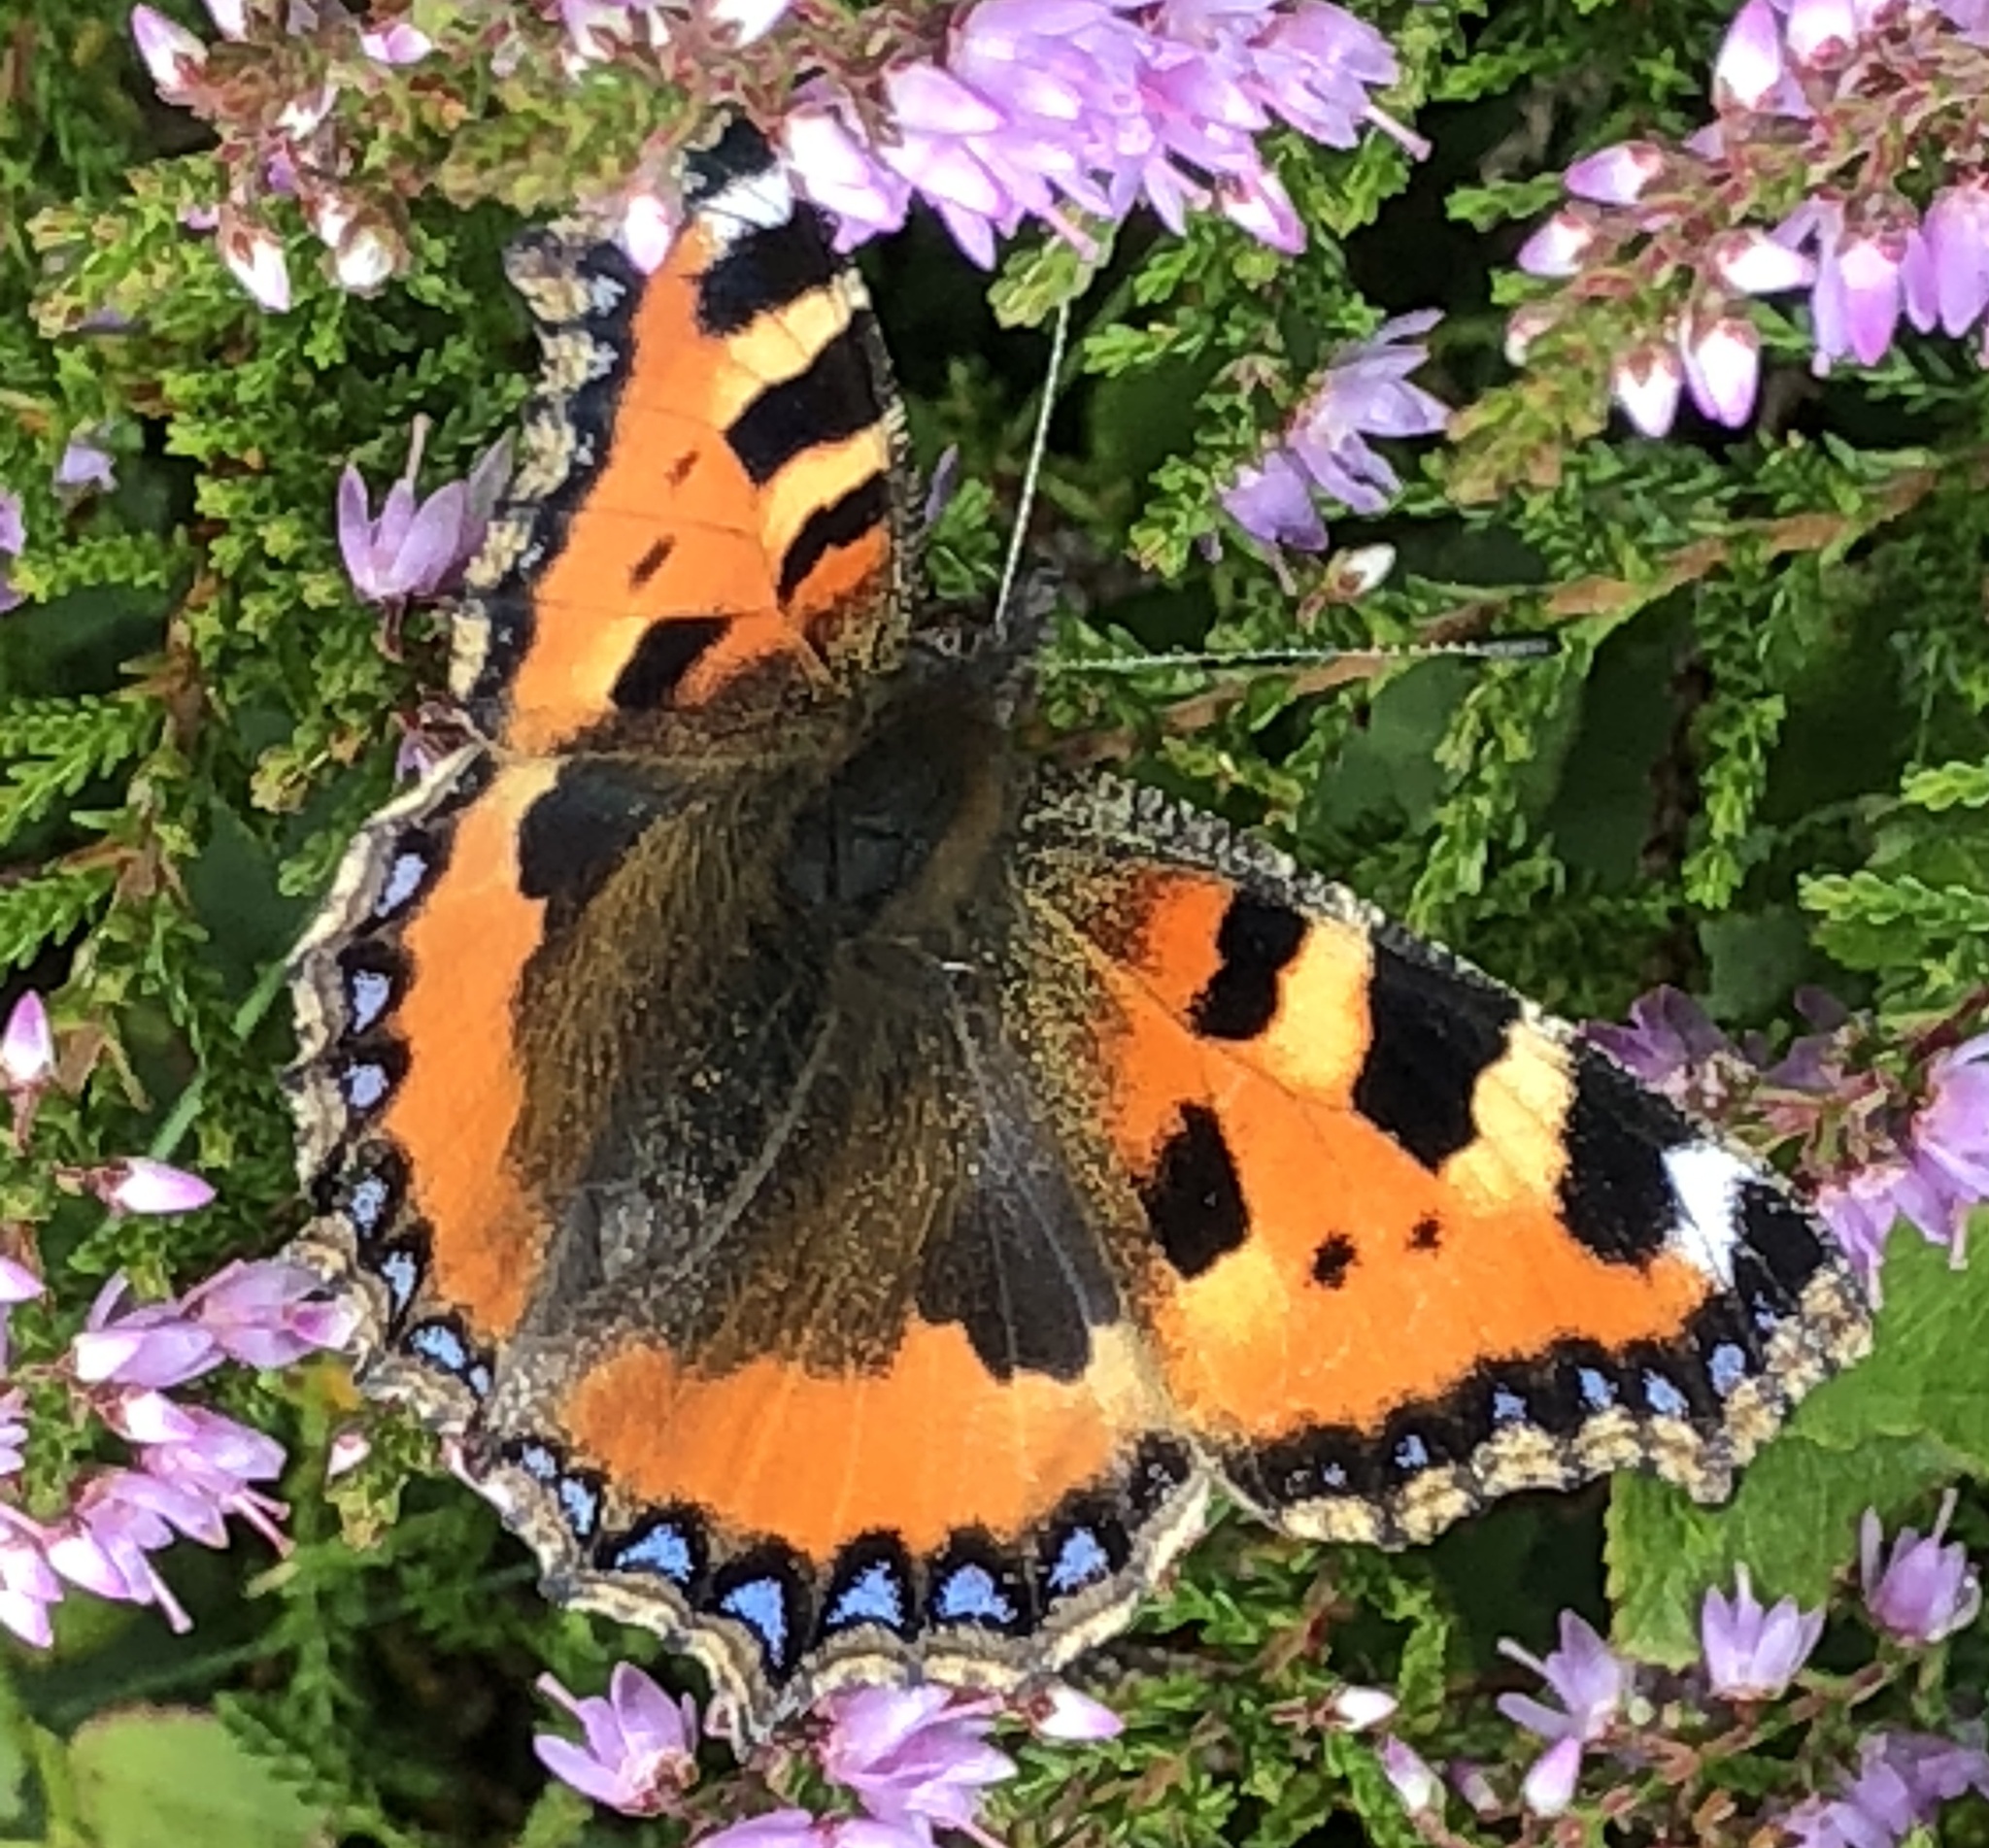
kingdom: Animalia
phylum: Arthropoda
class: Insecta
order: Lepidoptera
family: Nymphalidae
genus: Aglais
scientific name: Aglais urticae
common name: Small tortoiseshell
